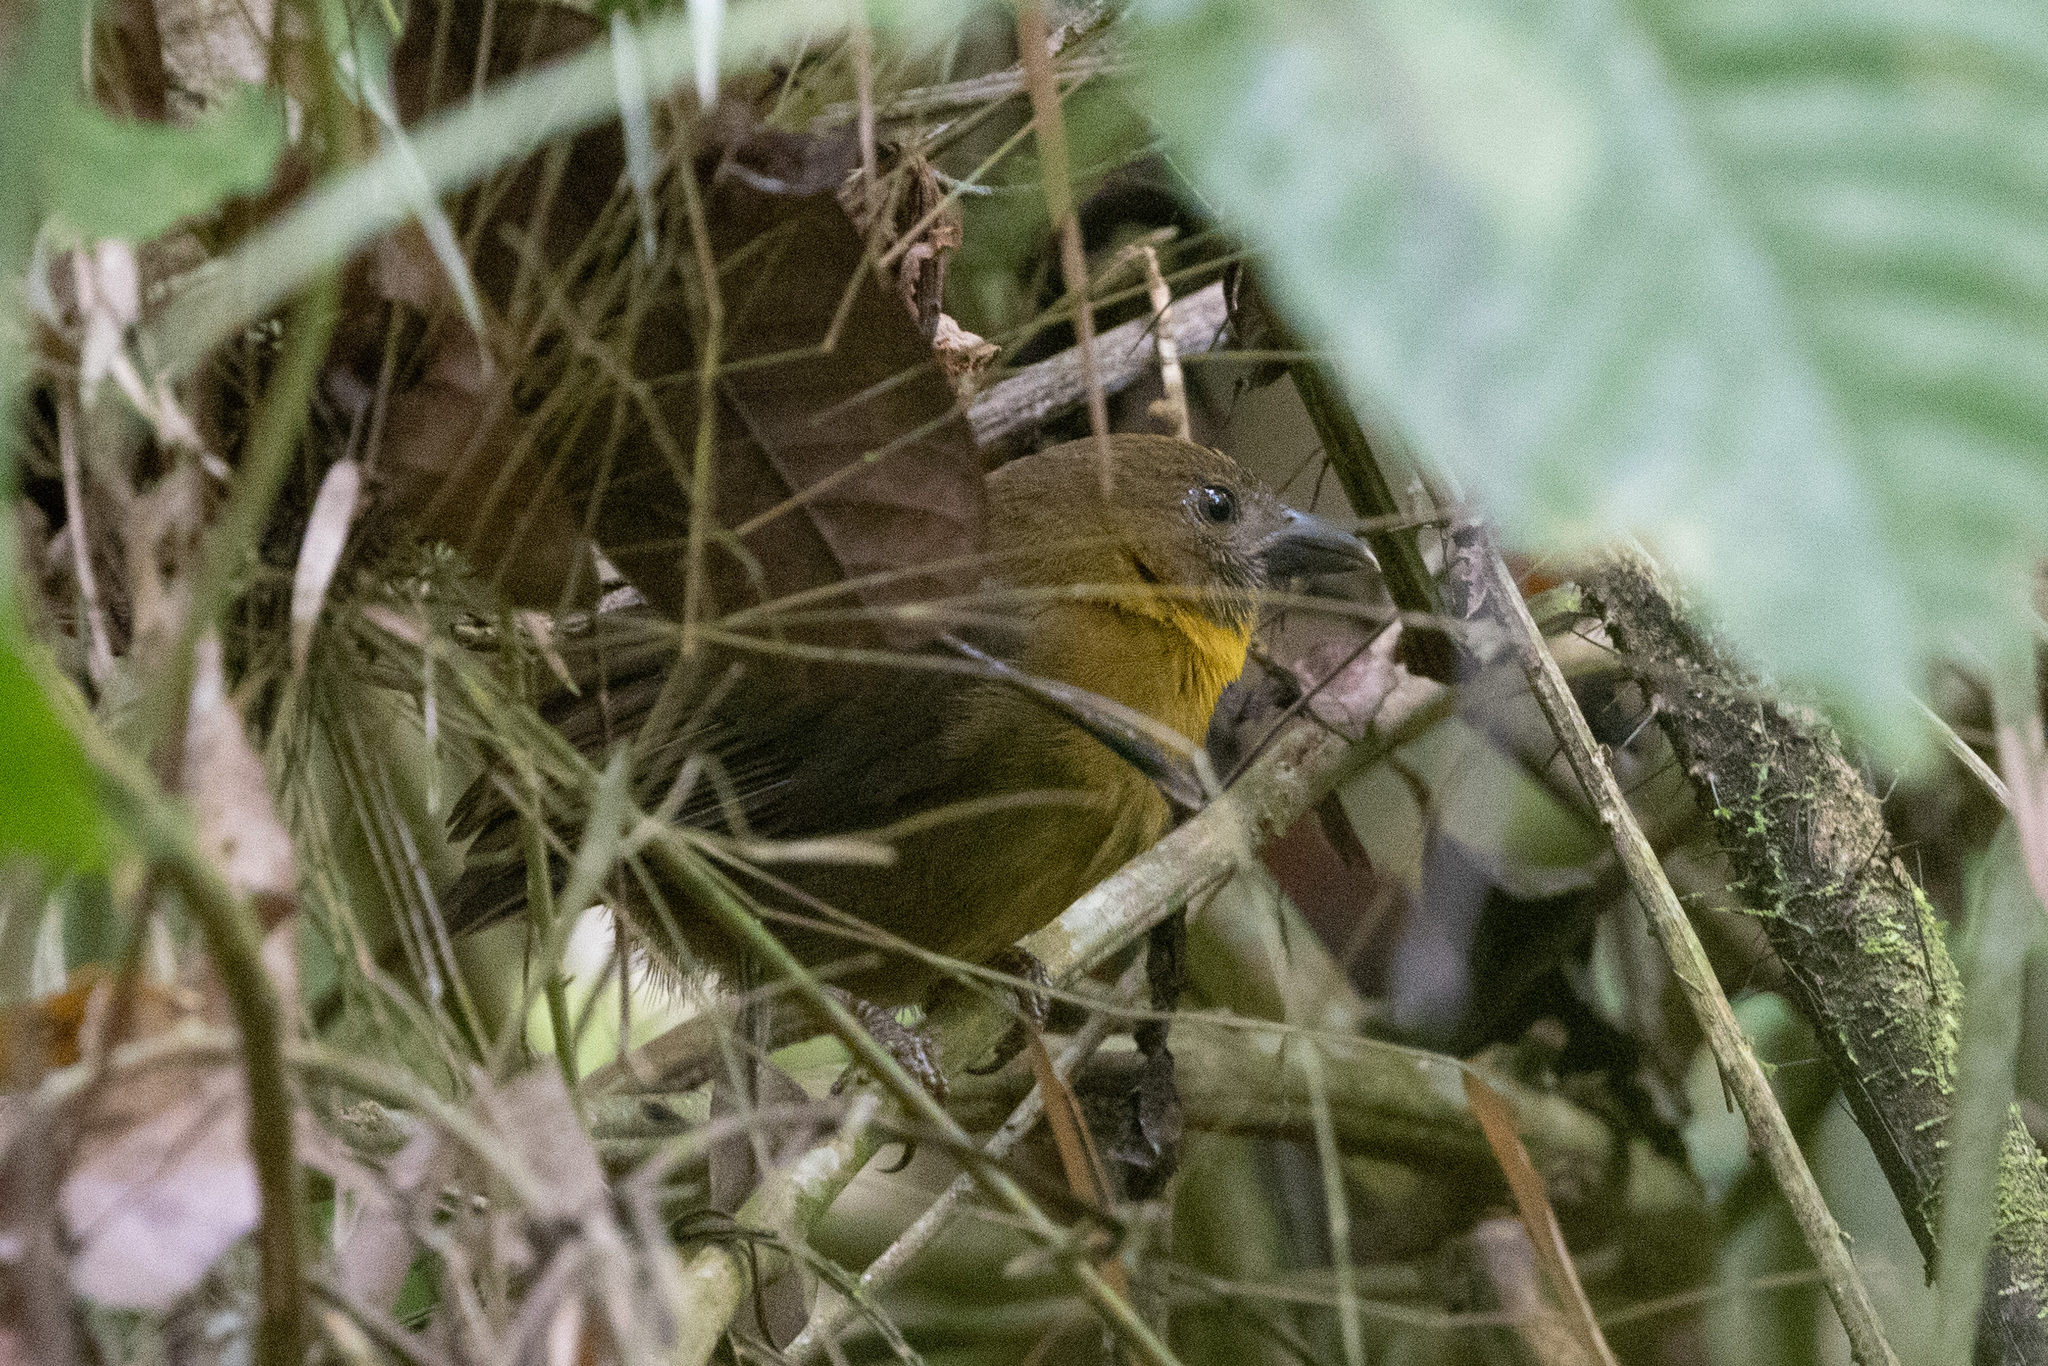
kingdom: Animalia
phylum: Chordata
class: Aves
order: Passeriformes
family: Cardinalidae
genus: Habia
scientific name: Habia fuscicauda
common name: Red-throated ant-tanager
